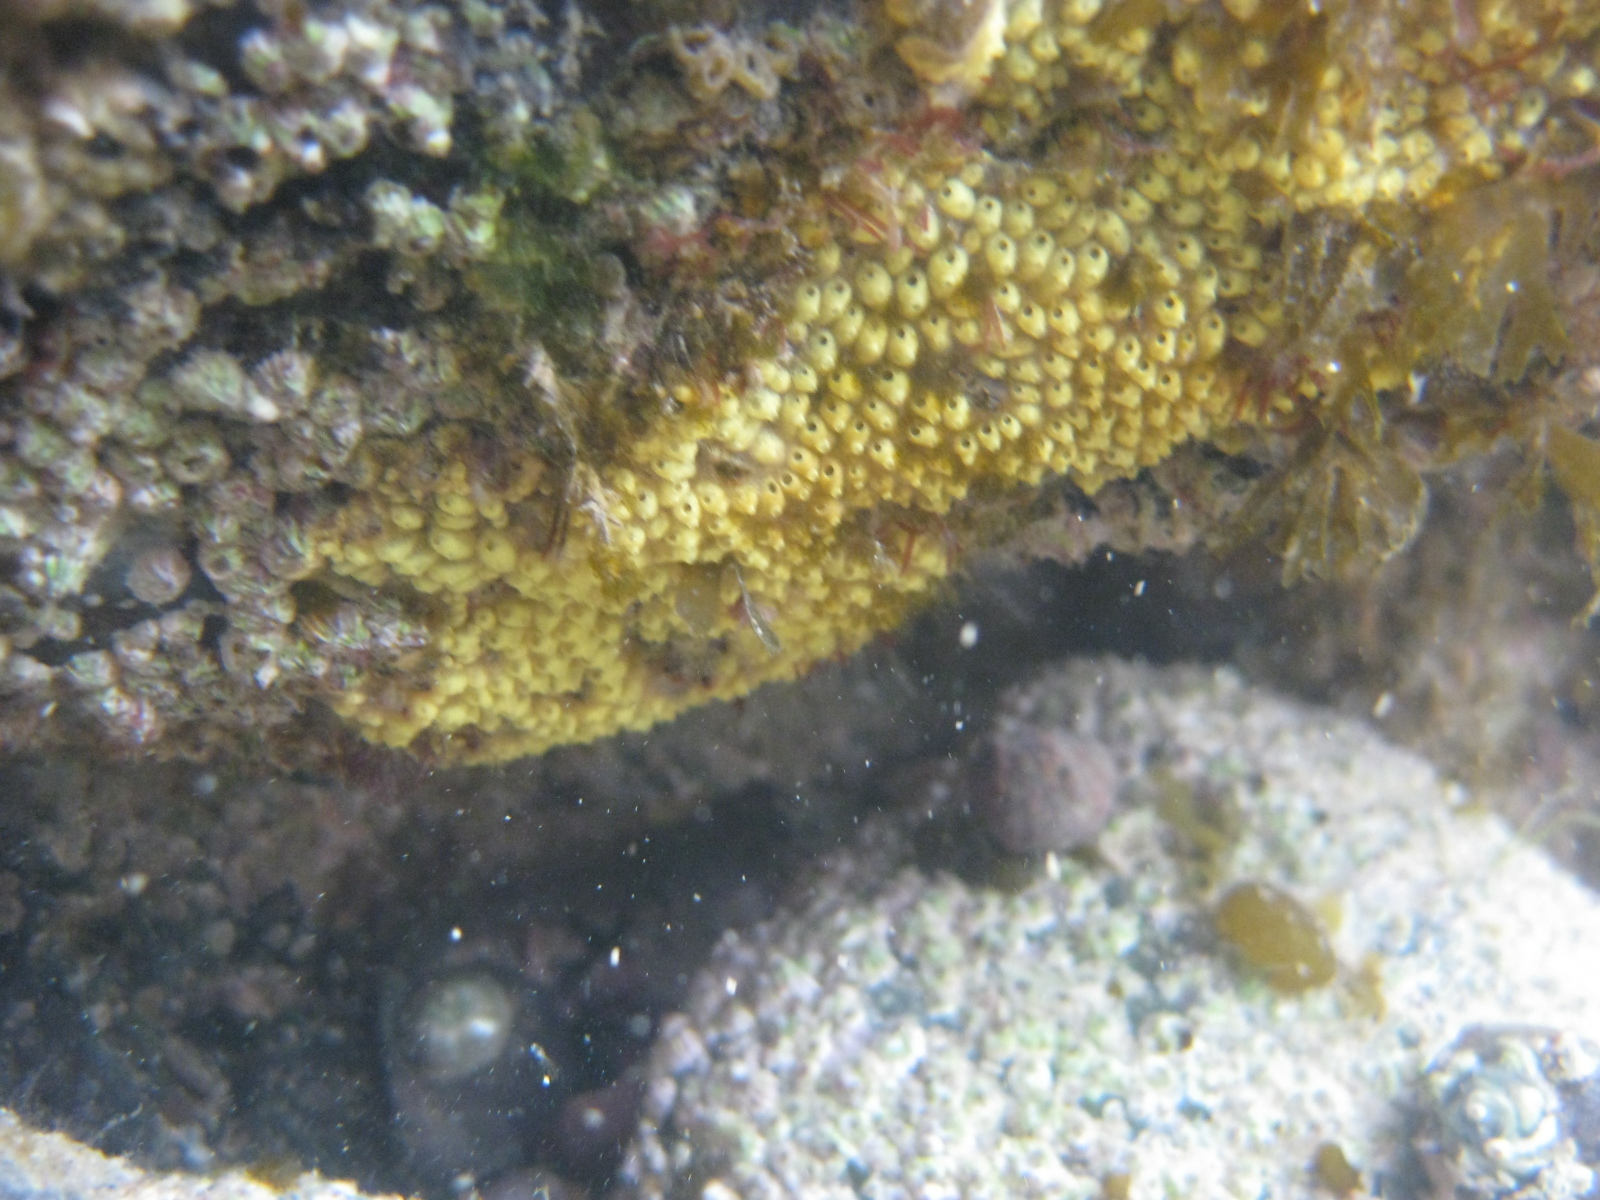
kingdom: Animalia
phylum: Chordata
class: Ascidiacea
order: Stolidobranchia
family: Styelidae
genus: Symplegma
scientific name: Symplegma brakenhielmi
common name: Ascidian
